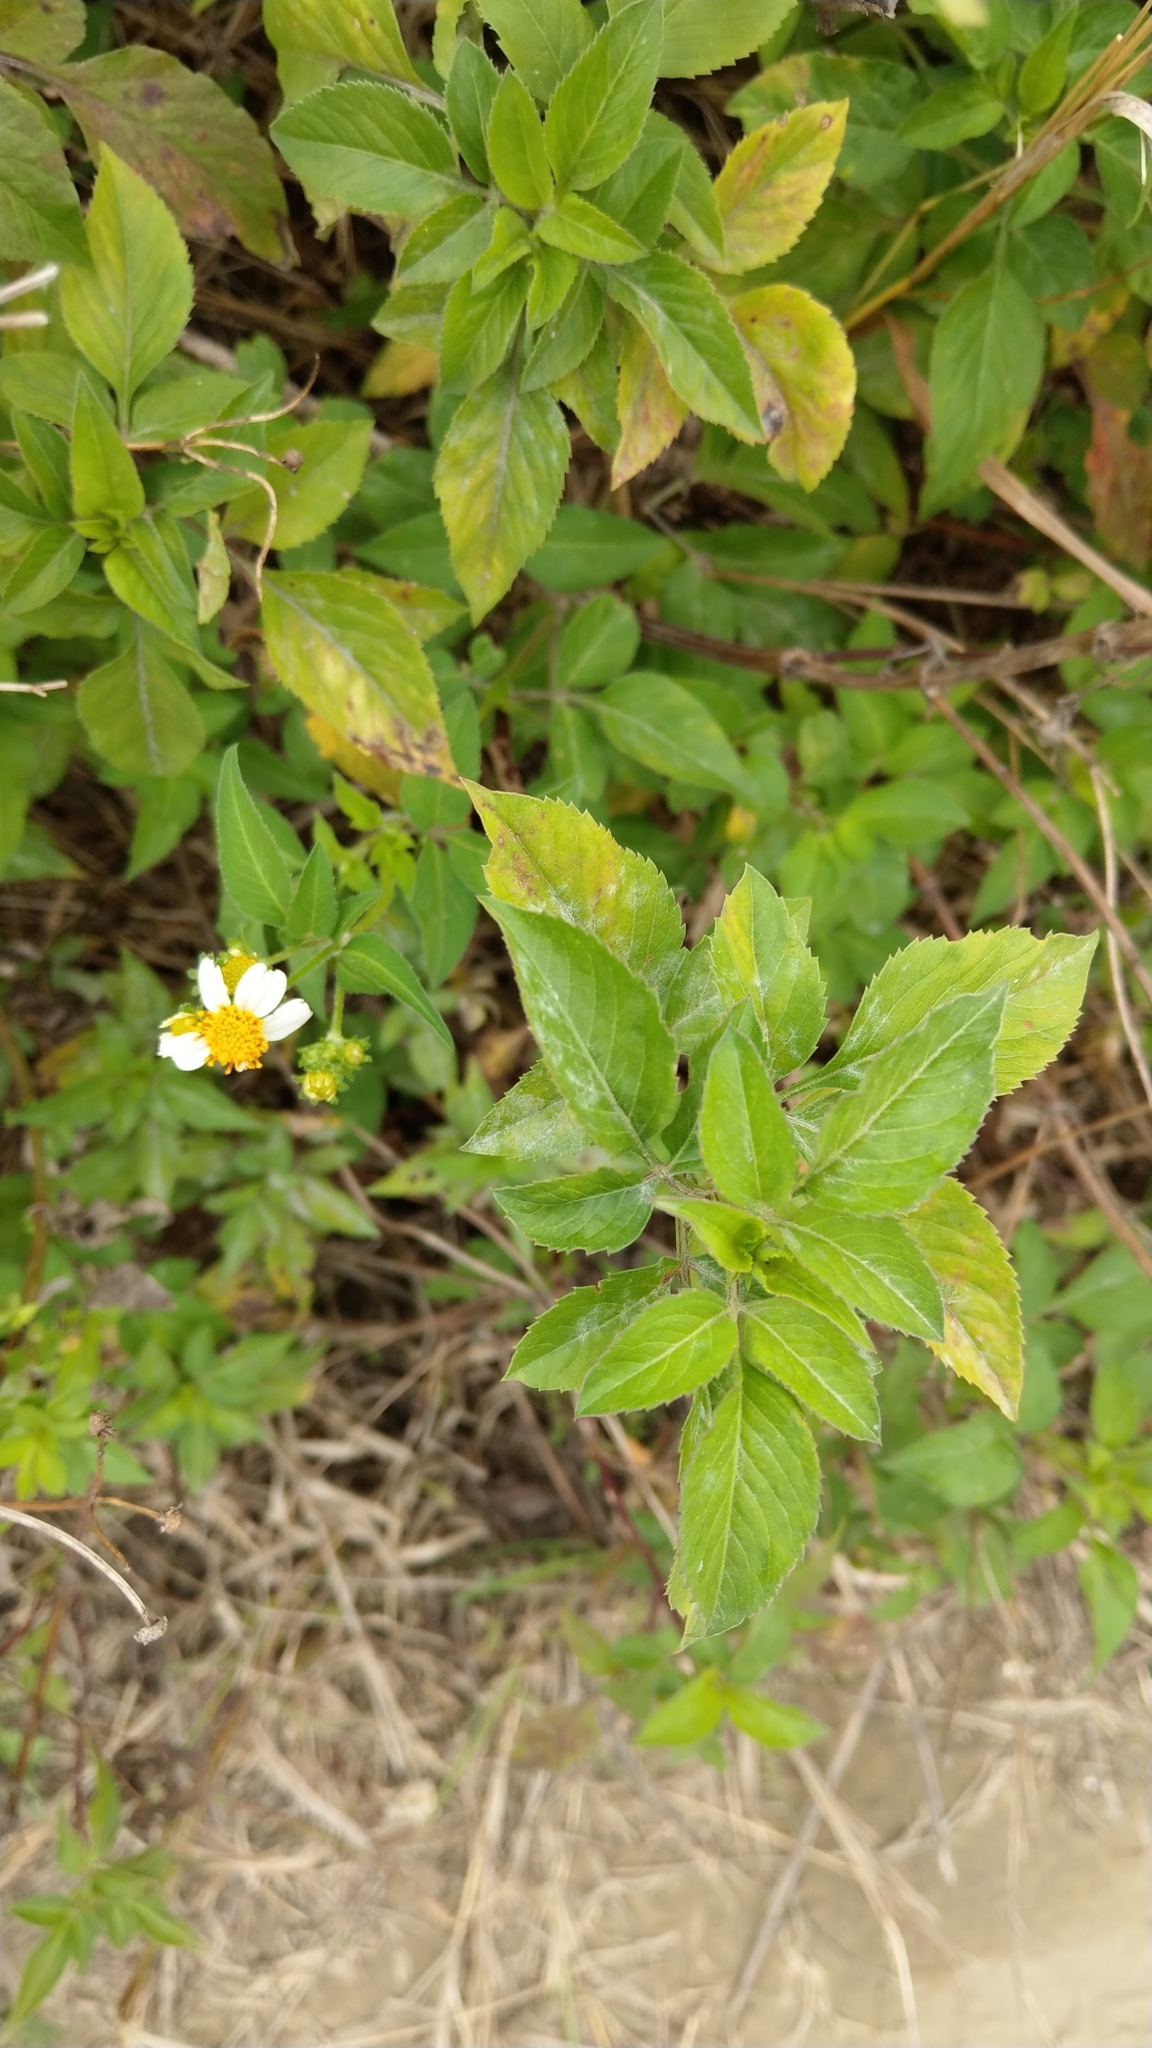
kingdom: Plantae
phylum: Tracheophyta
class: Magnoliopsida
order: Asterales
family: Asteraceae
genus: Bidens
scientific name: Bidens alba
